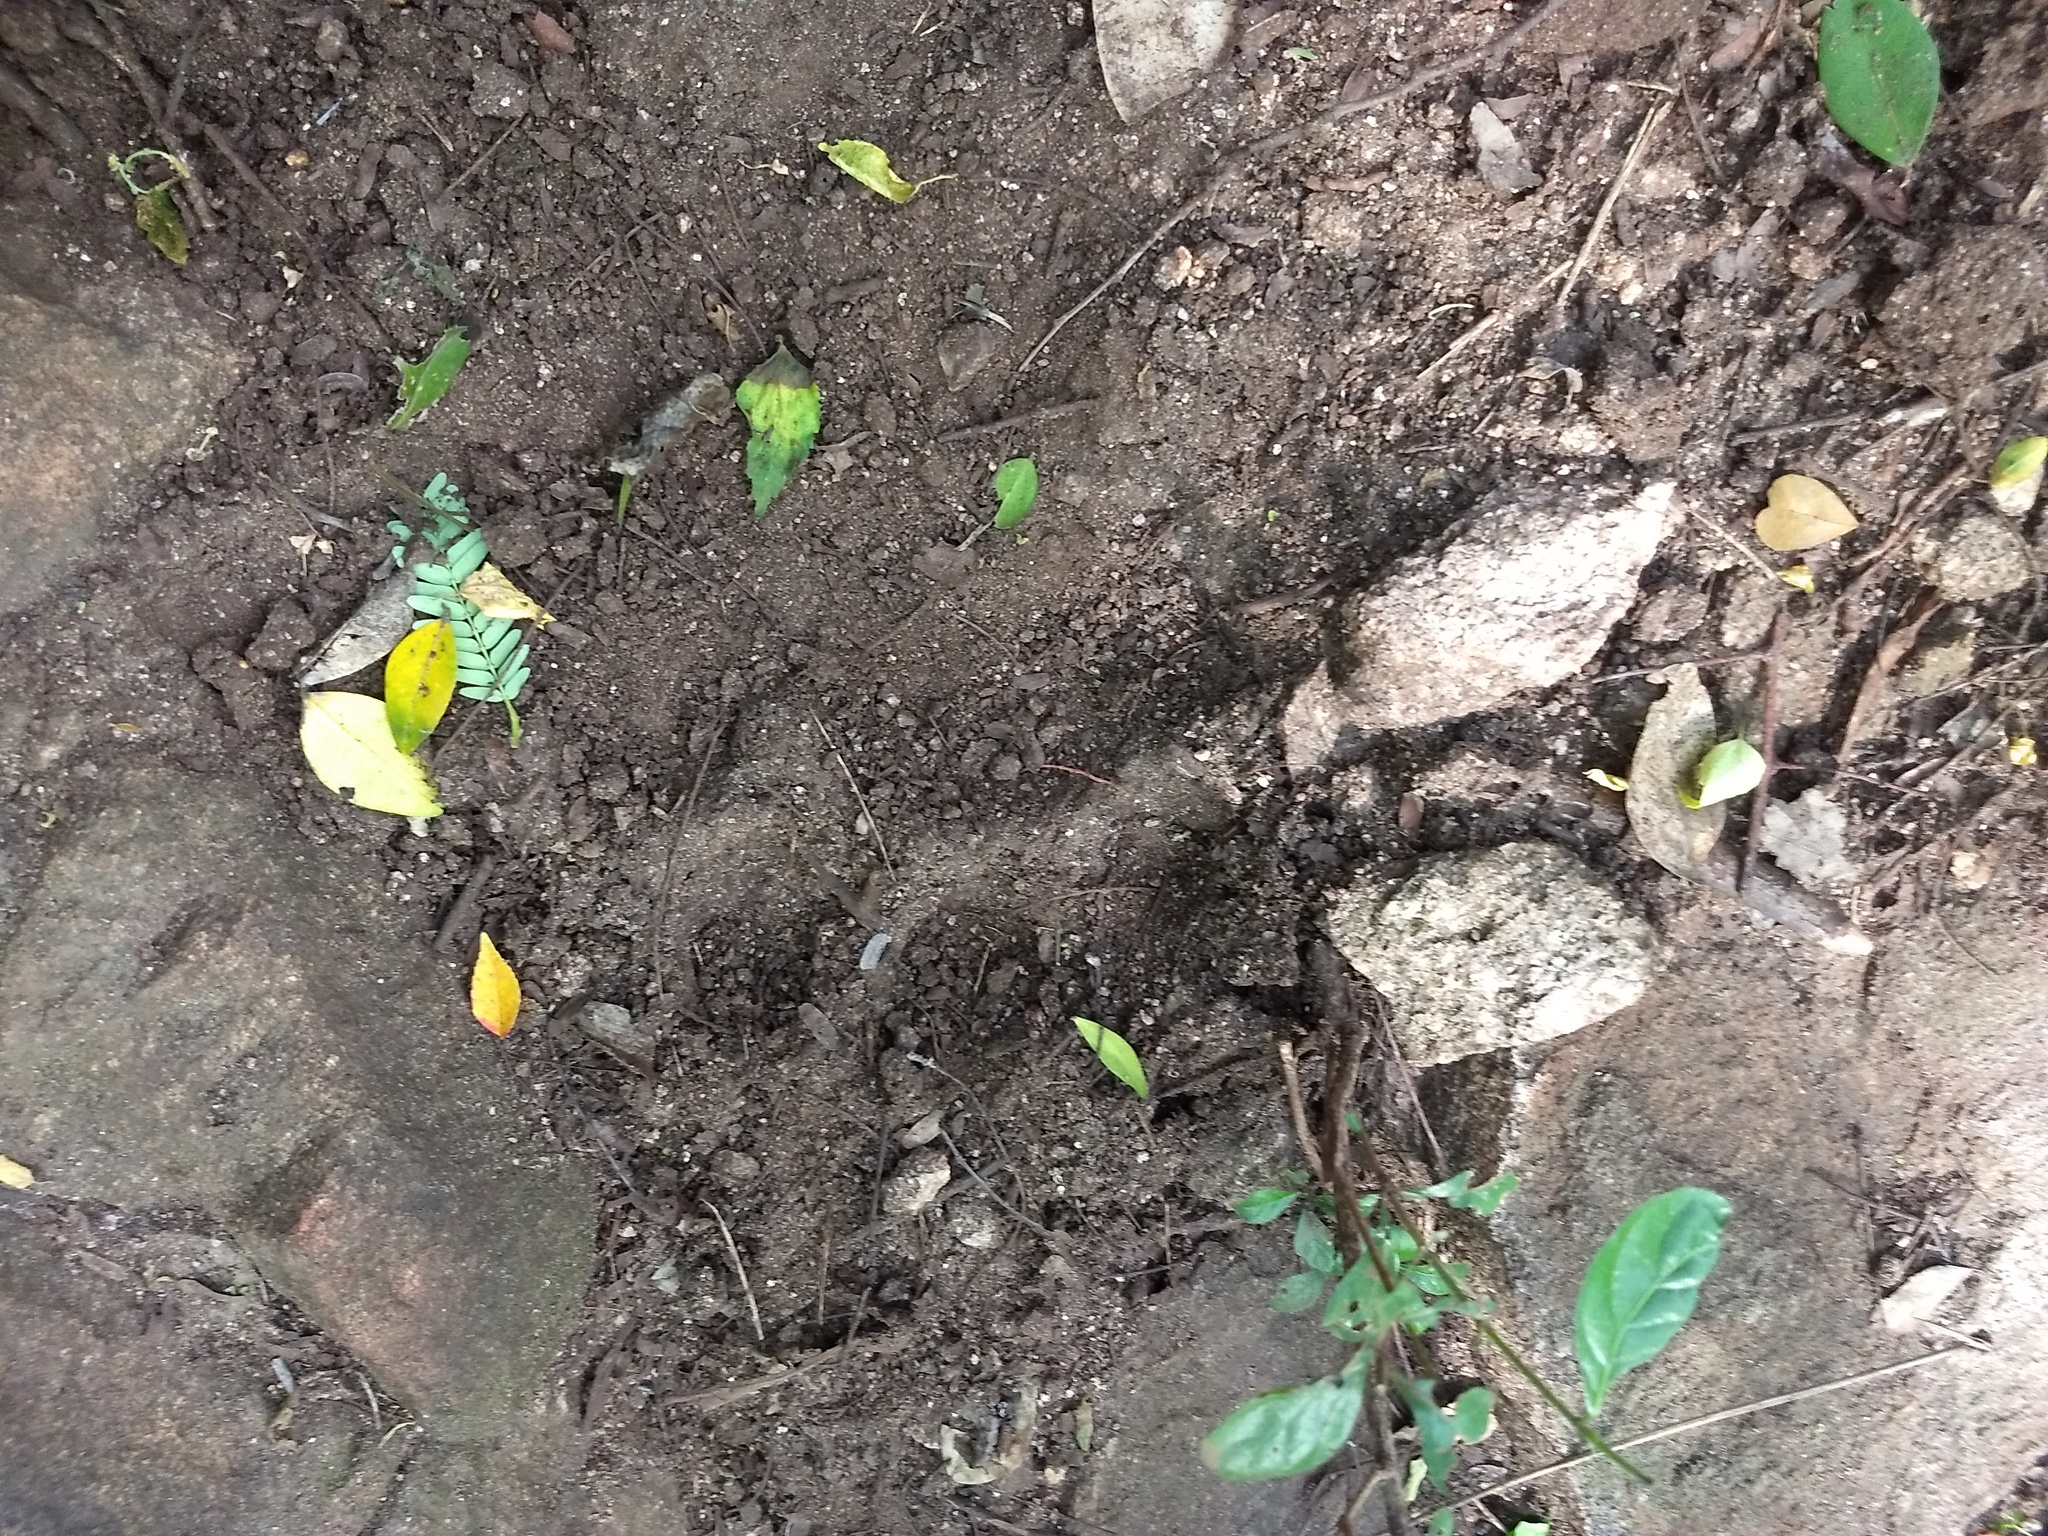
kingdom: Animalia
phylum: Chordata
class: Mammalia
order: Carnivora
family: Felidae
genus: Panthera
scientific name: Panthera tigris
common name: Tiger
